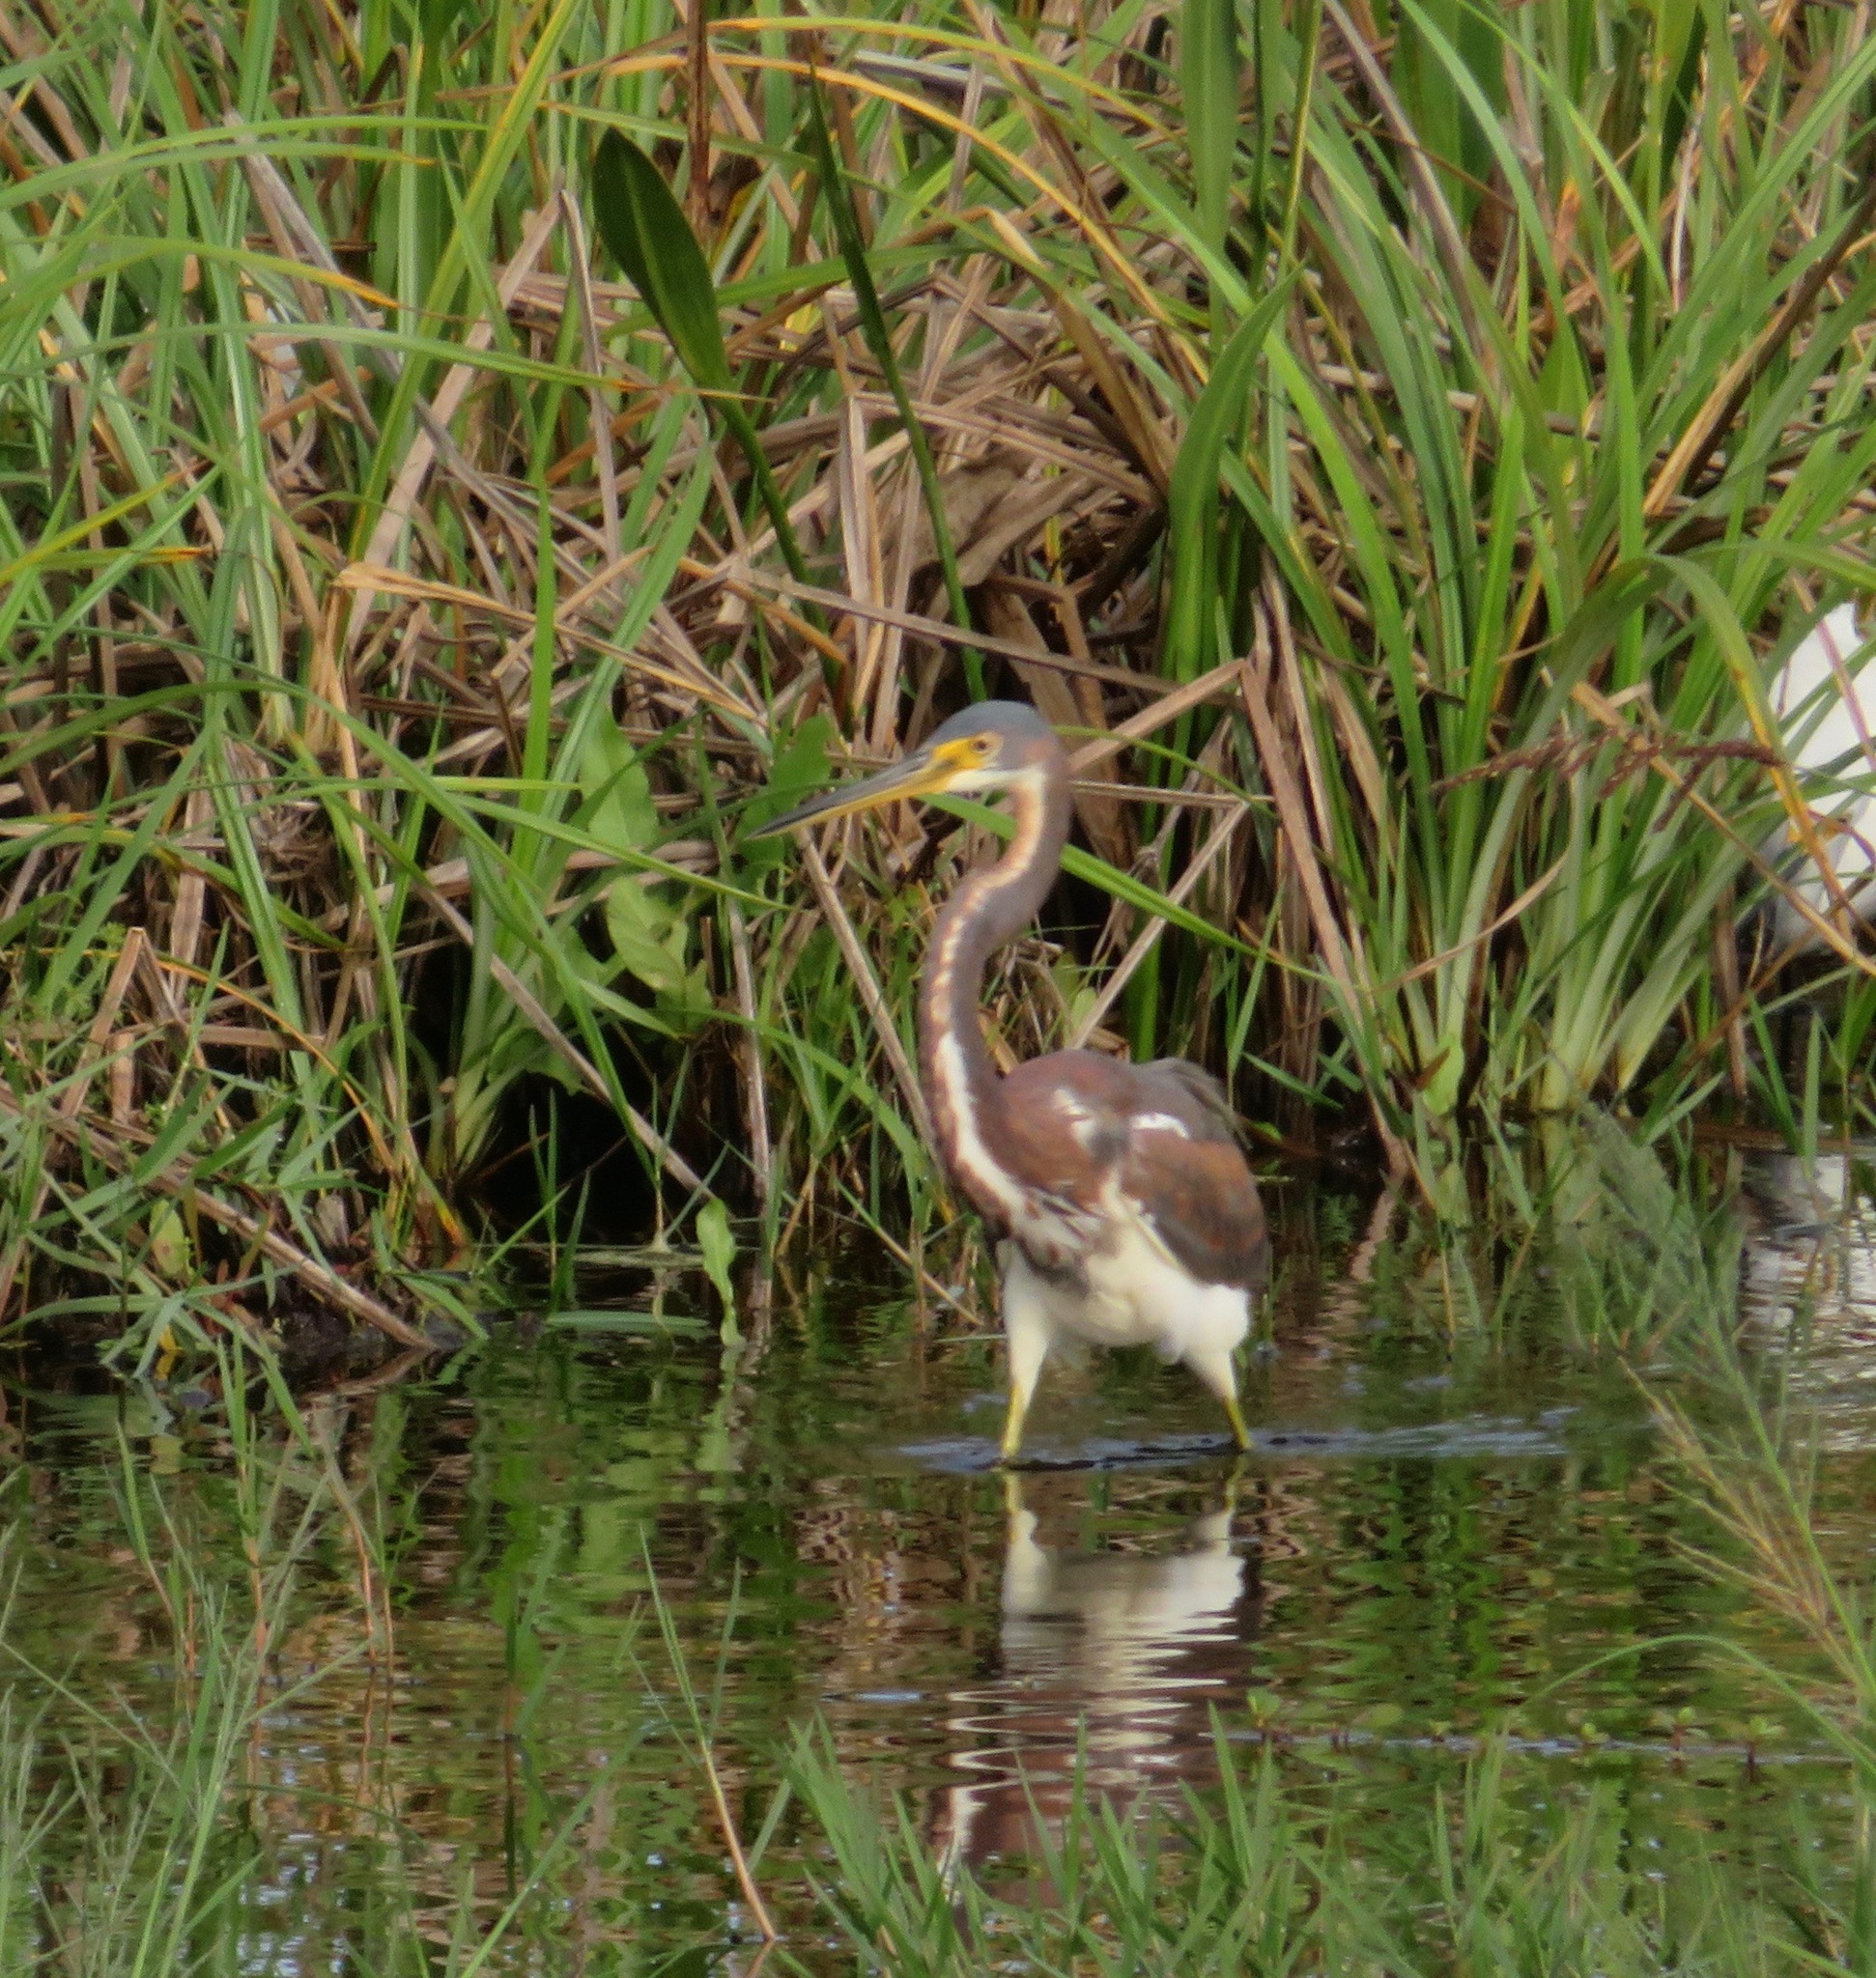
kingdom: Animalia
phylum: Chordata
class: Aves
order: Pelecaniformes
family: Ardeidae
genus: Egretta
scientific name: Egretta tricolor
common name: Tricolored heron
